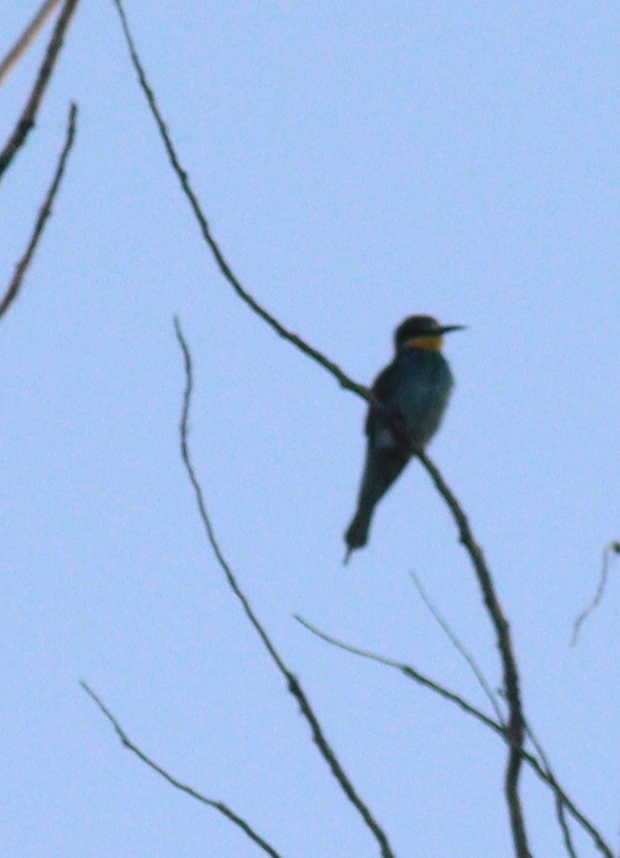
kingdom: Animalia
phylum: Chordata
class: Aves
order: Coraciiformes
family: Meropidae
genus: Merops
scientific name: Merops apiaster
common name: European bee-eater
